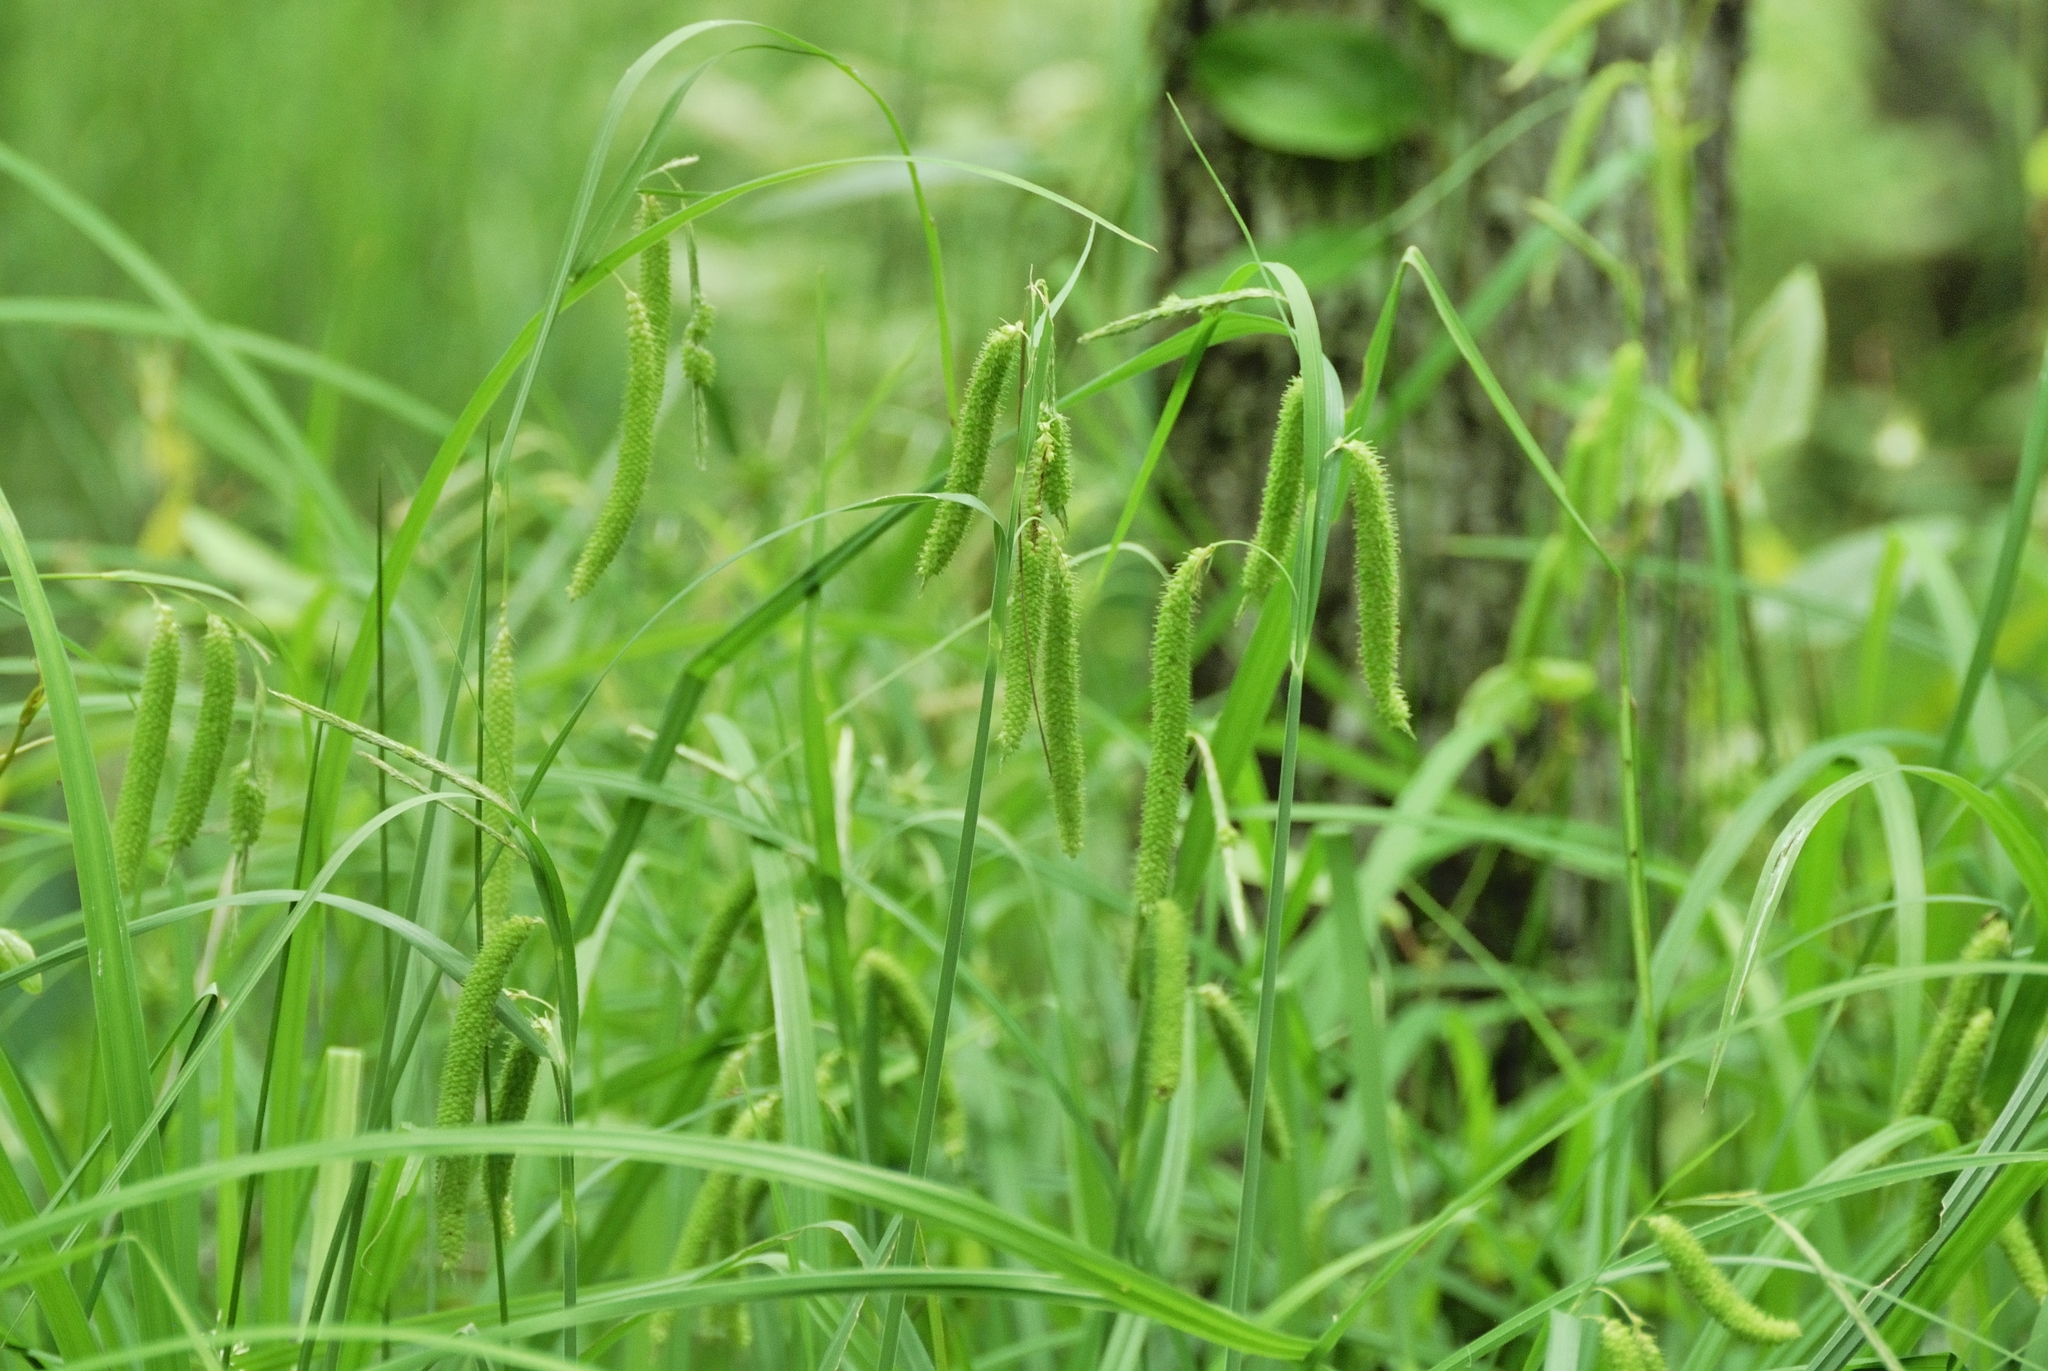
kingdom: Plantae
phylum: Tracheophyta
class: Liliopsida
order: Poales
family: Cyperaceae
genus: Carex
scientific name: Carex crinita
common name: Fringed sedge
